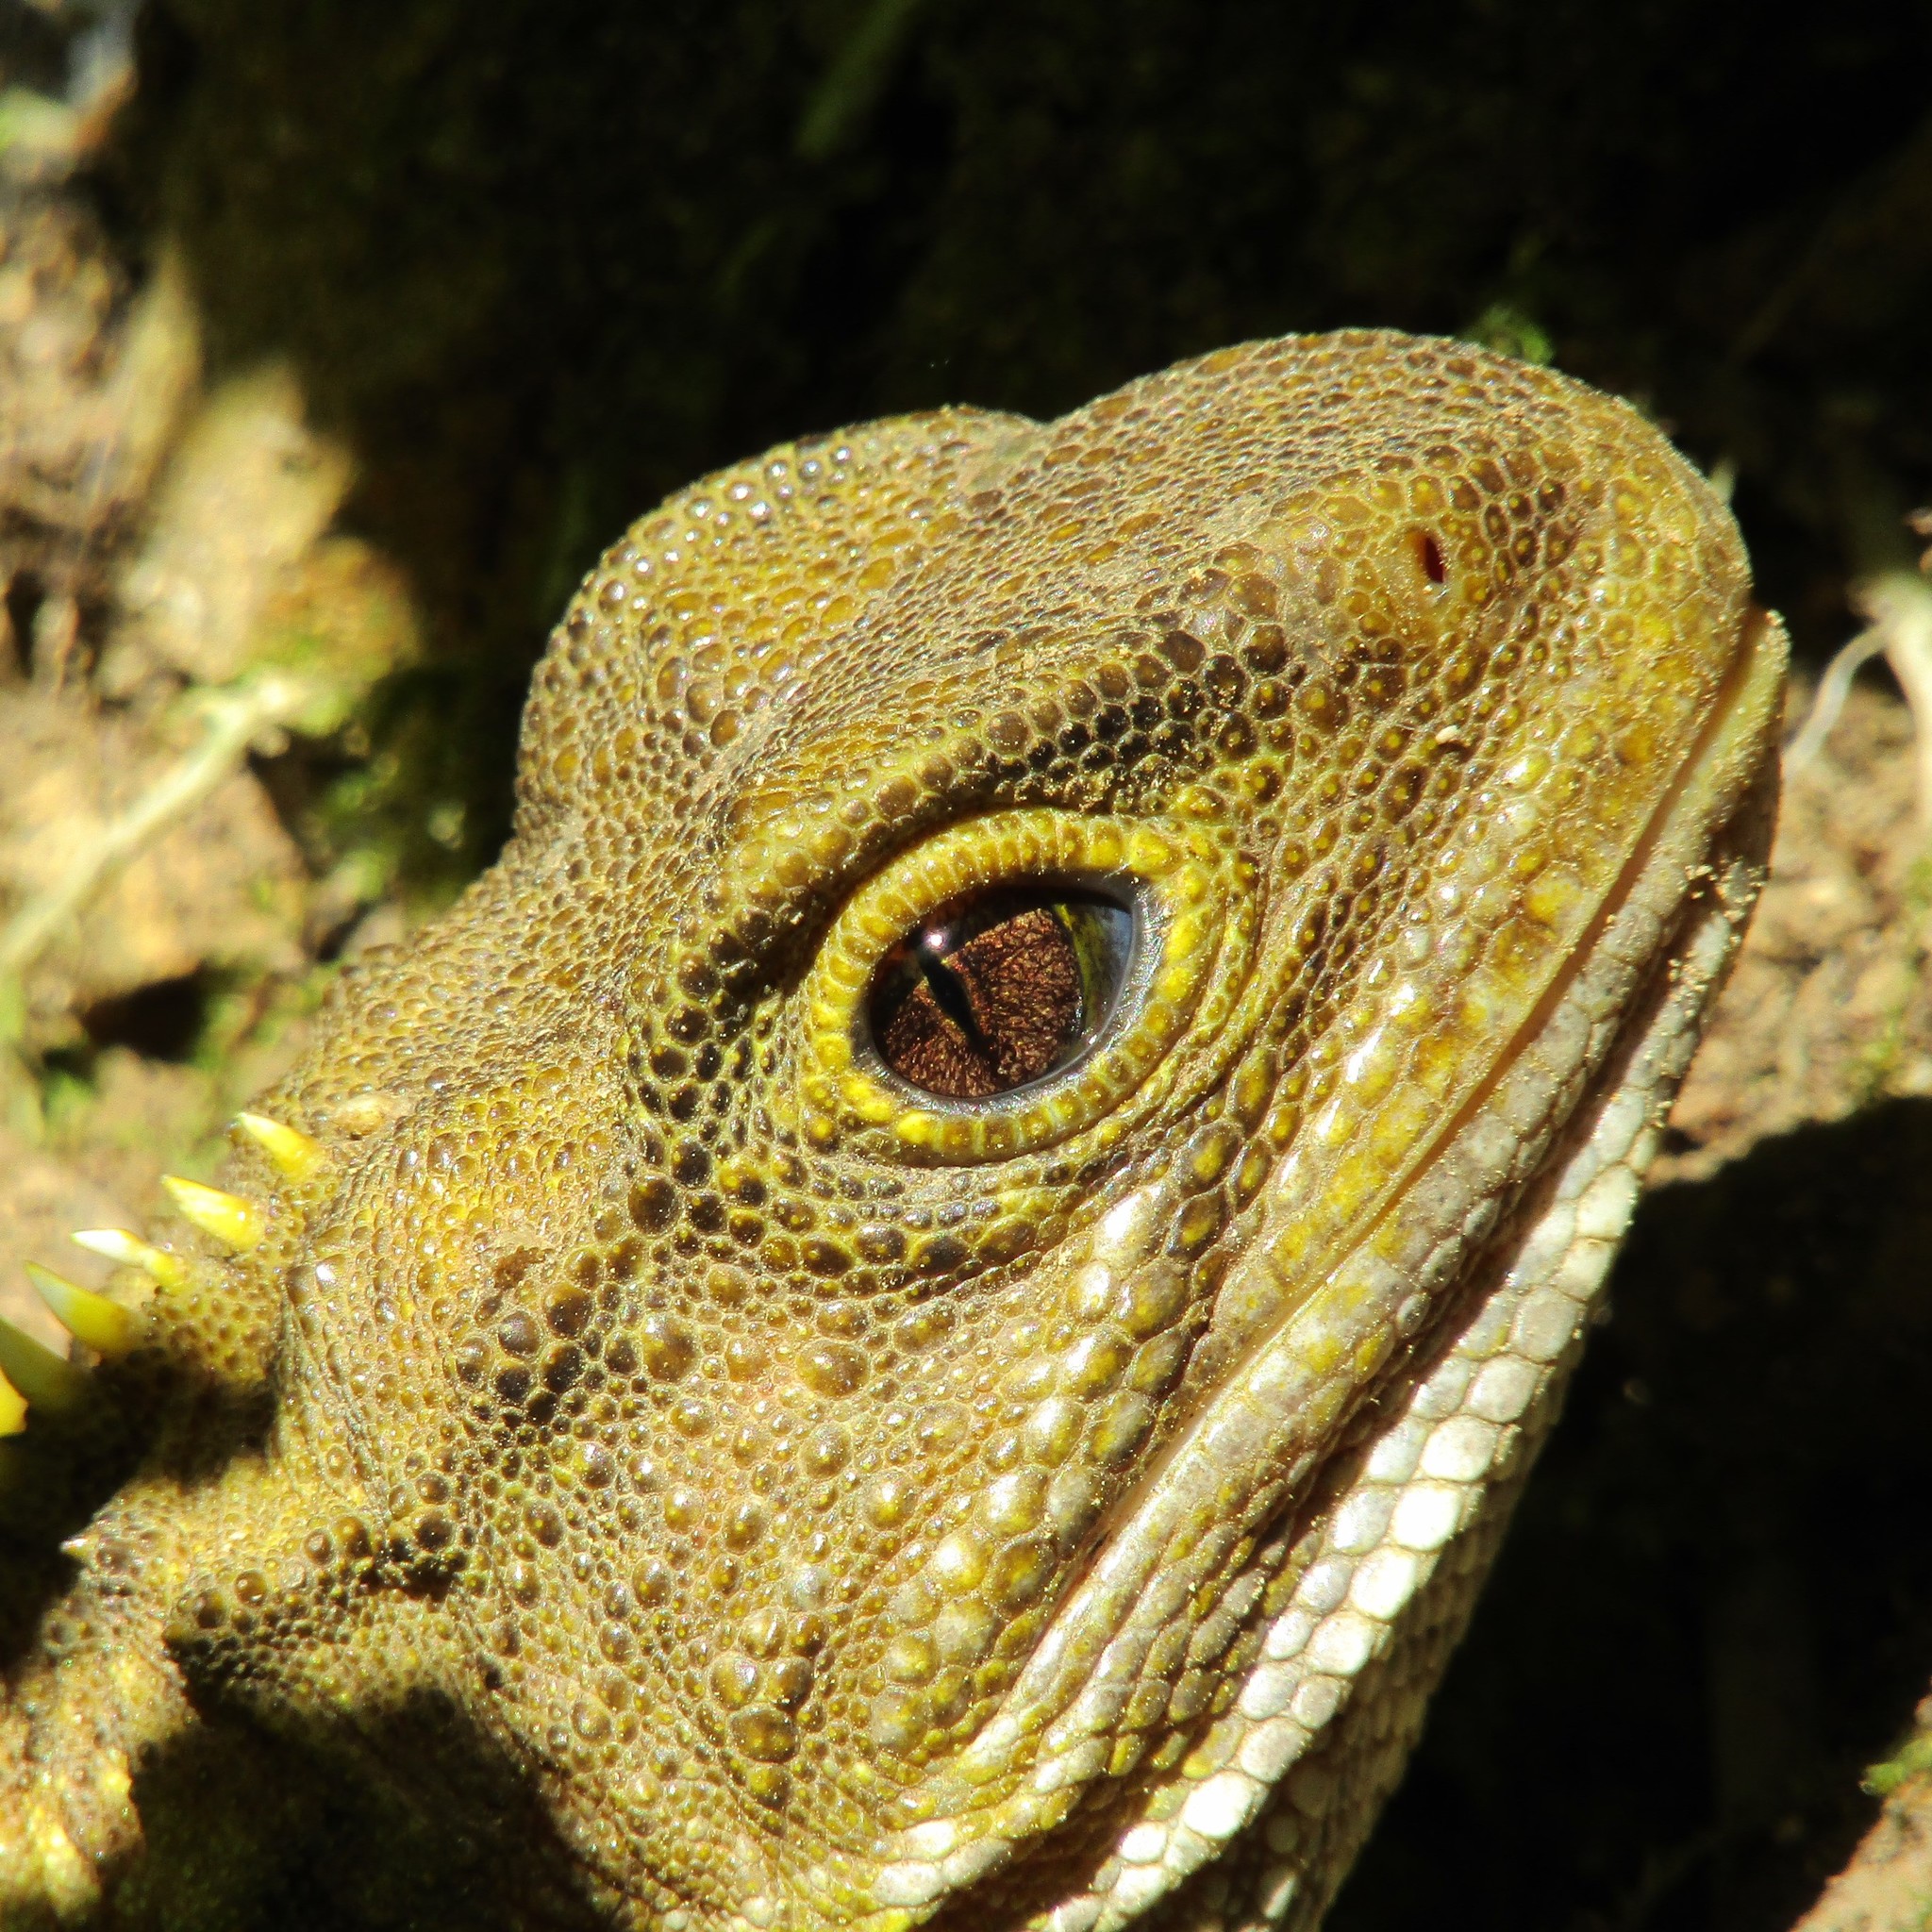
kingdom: Animalia
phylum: Chordata
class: Sphenodontia
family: Sphenodontidae
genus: Sphenodon
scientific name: Sphenodon punctatus
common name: Tuatara
